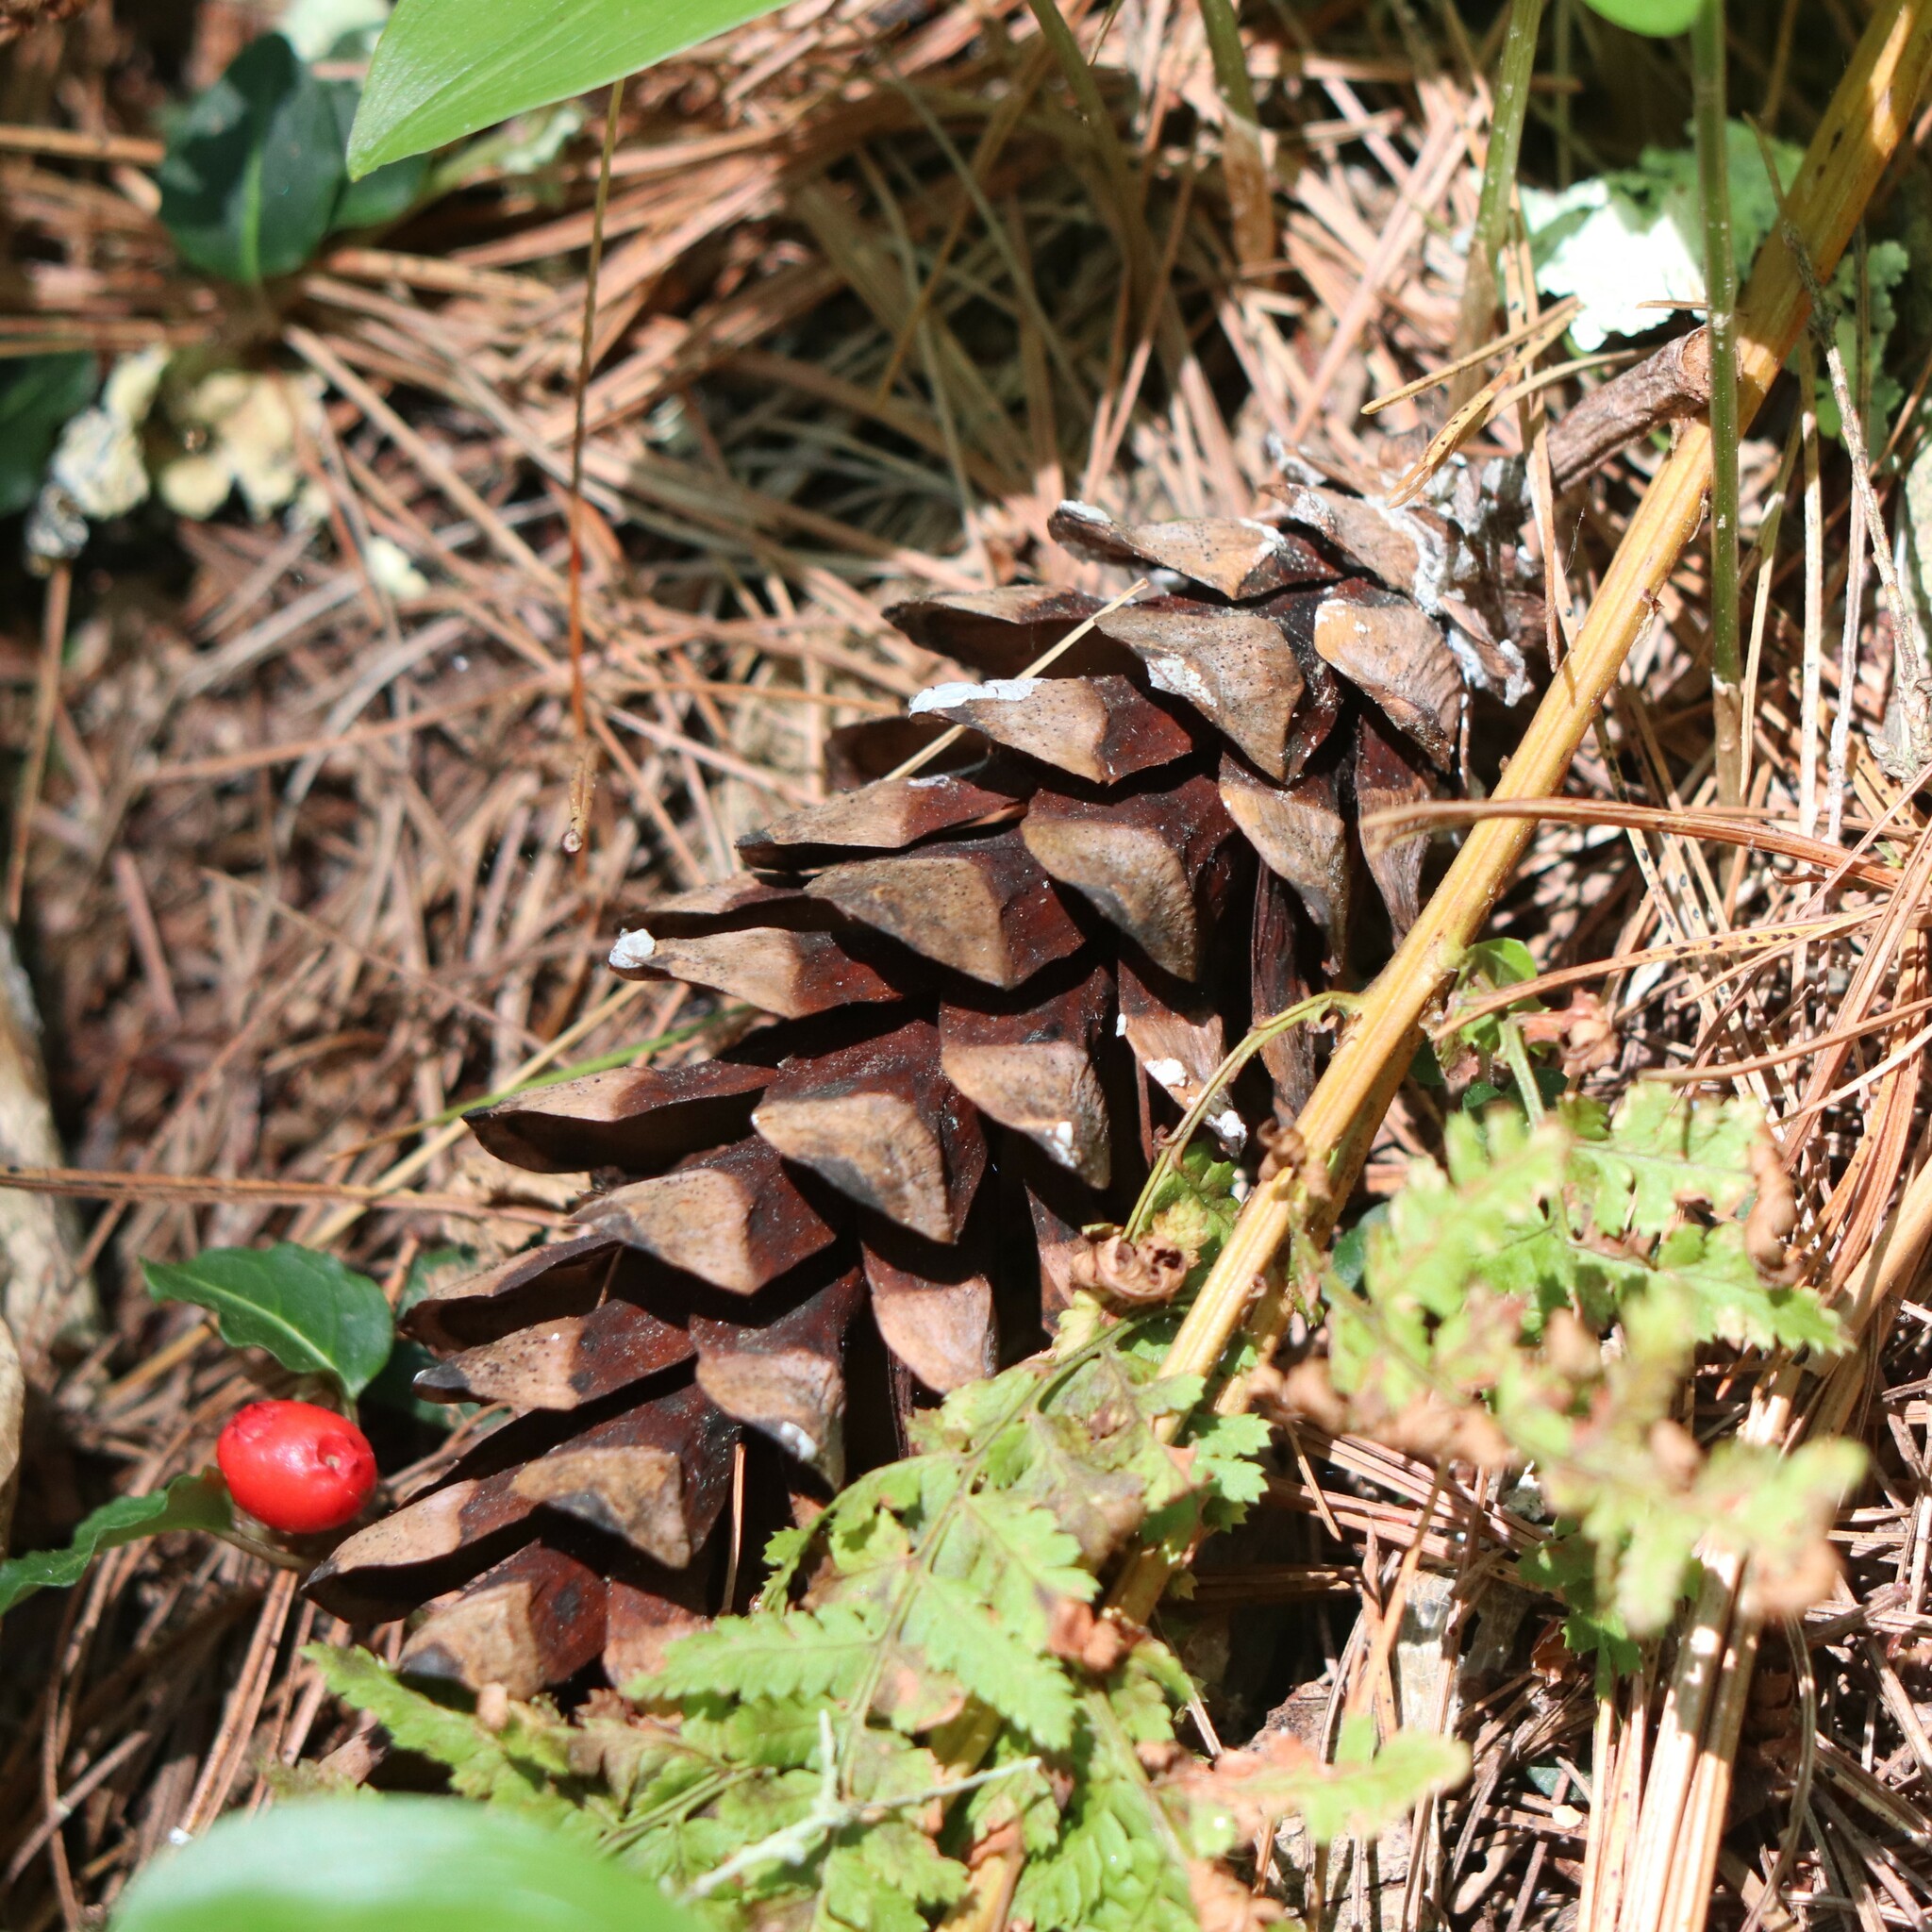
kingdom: Plantae
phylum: Tracheophyta
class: Pinopsida
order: Pinales
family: Pinaceae
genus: Pinus
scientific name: Pinus strobus
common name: Weymouth pine
